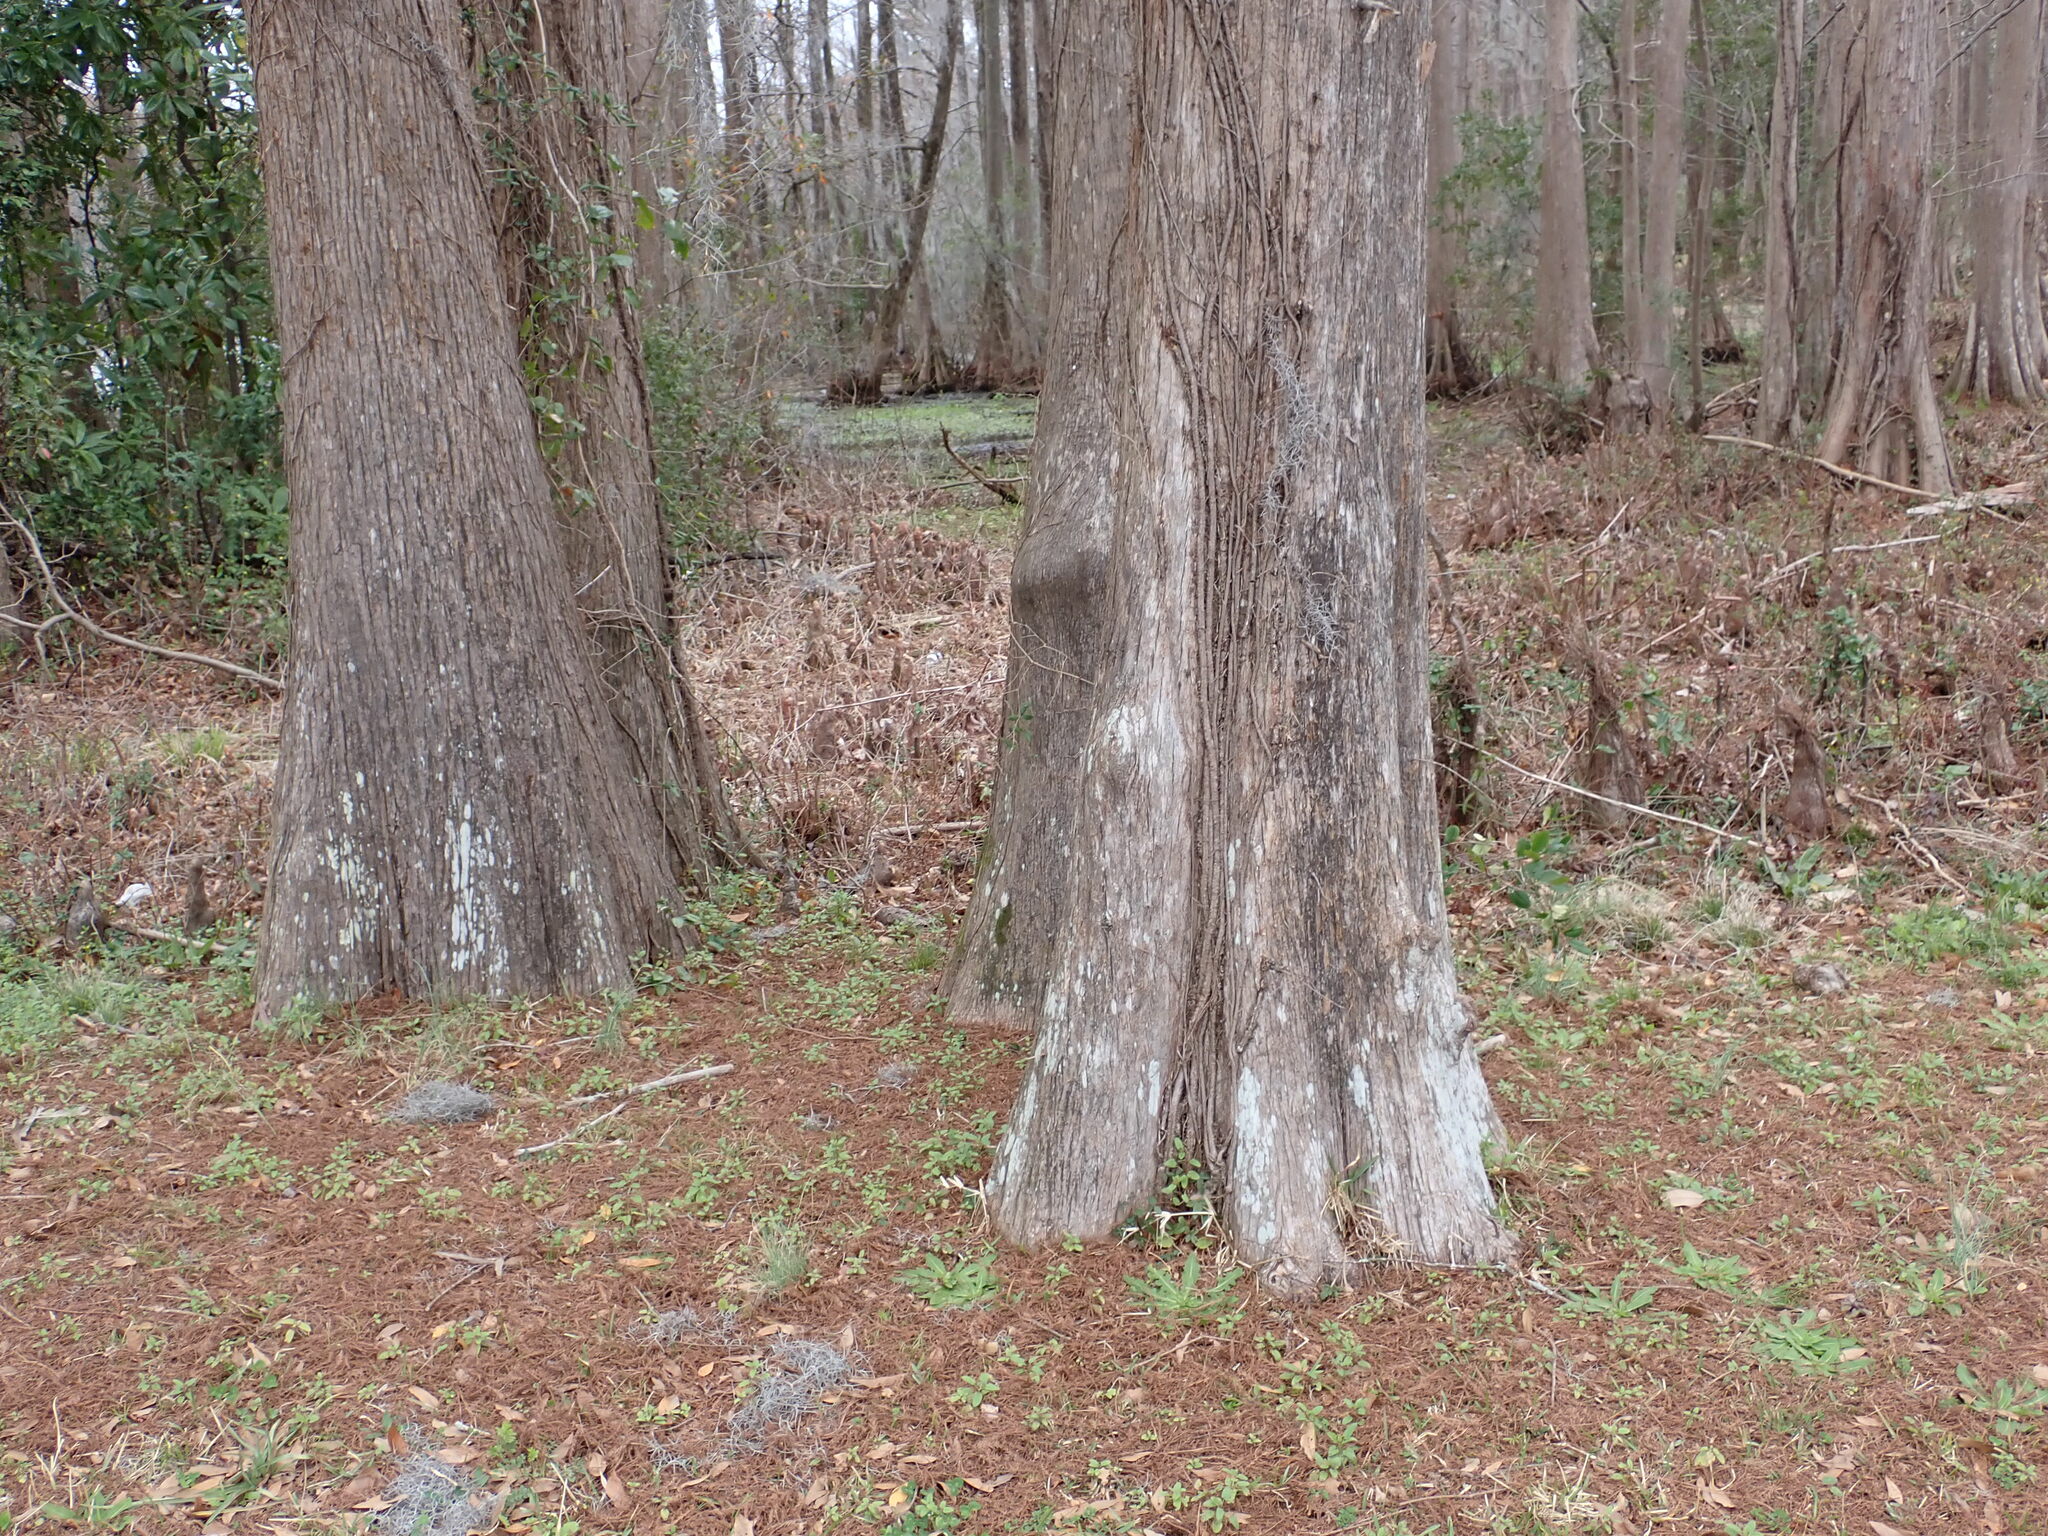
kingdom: Plantae
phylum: Tracheophyta
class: Pinopsida
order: Pinales
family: Cupressaceae
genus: Taxodium
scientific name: Taxodium distichum
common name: Bald cypress
